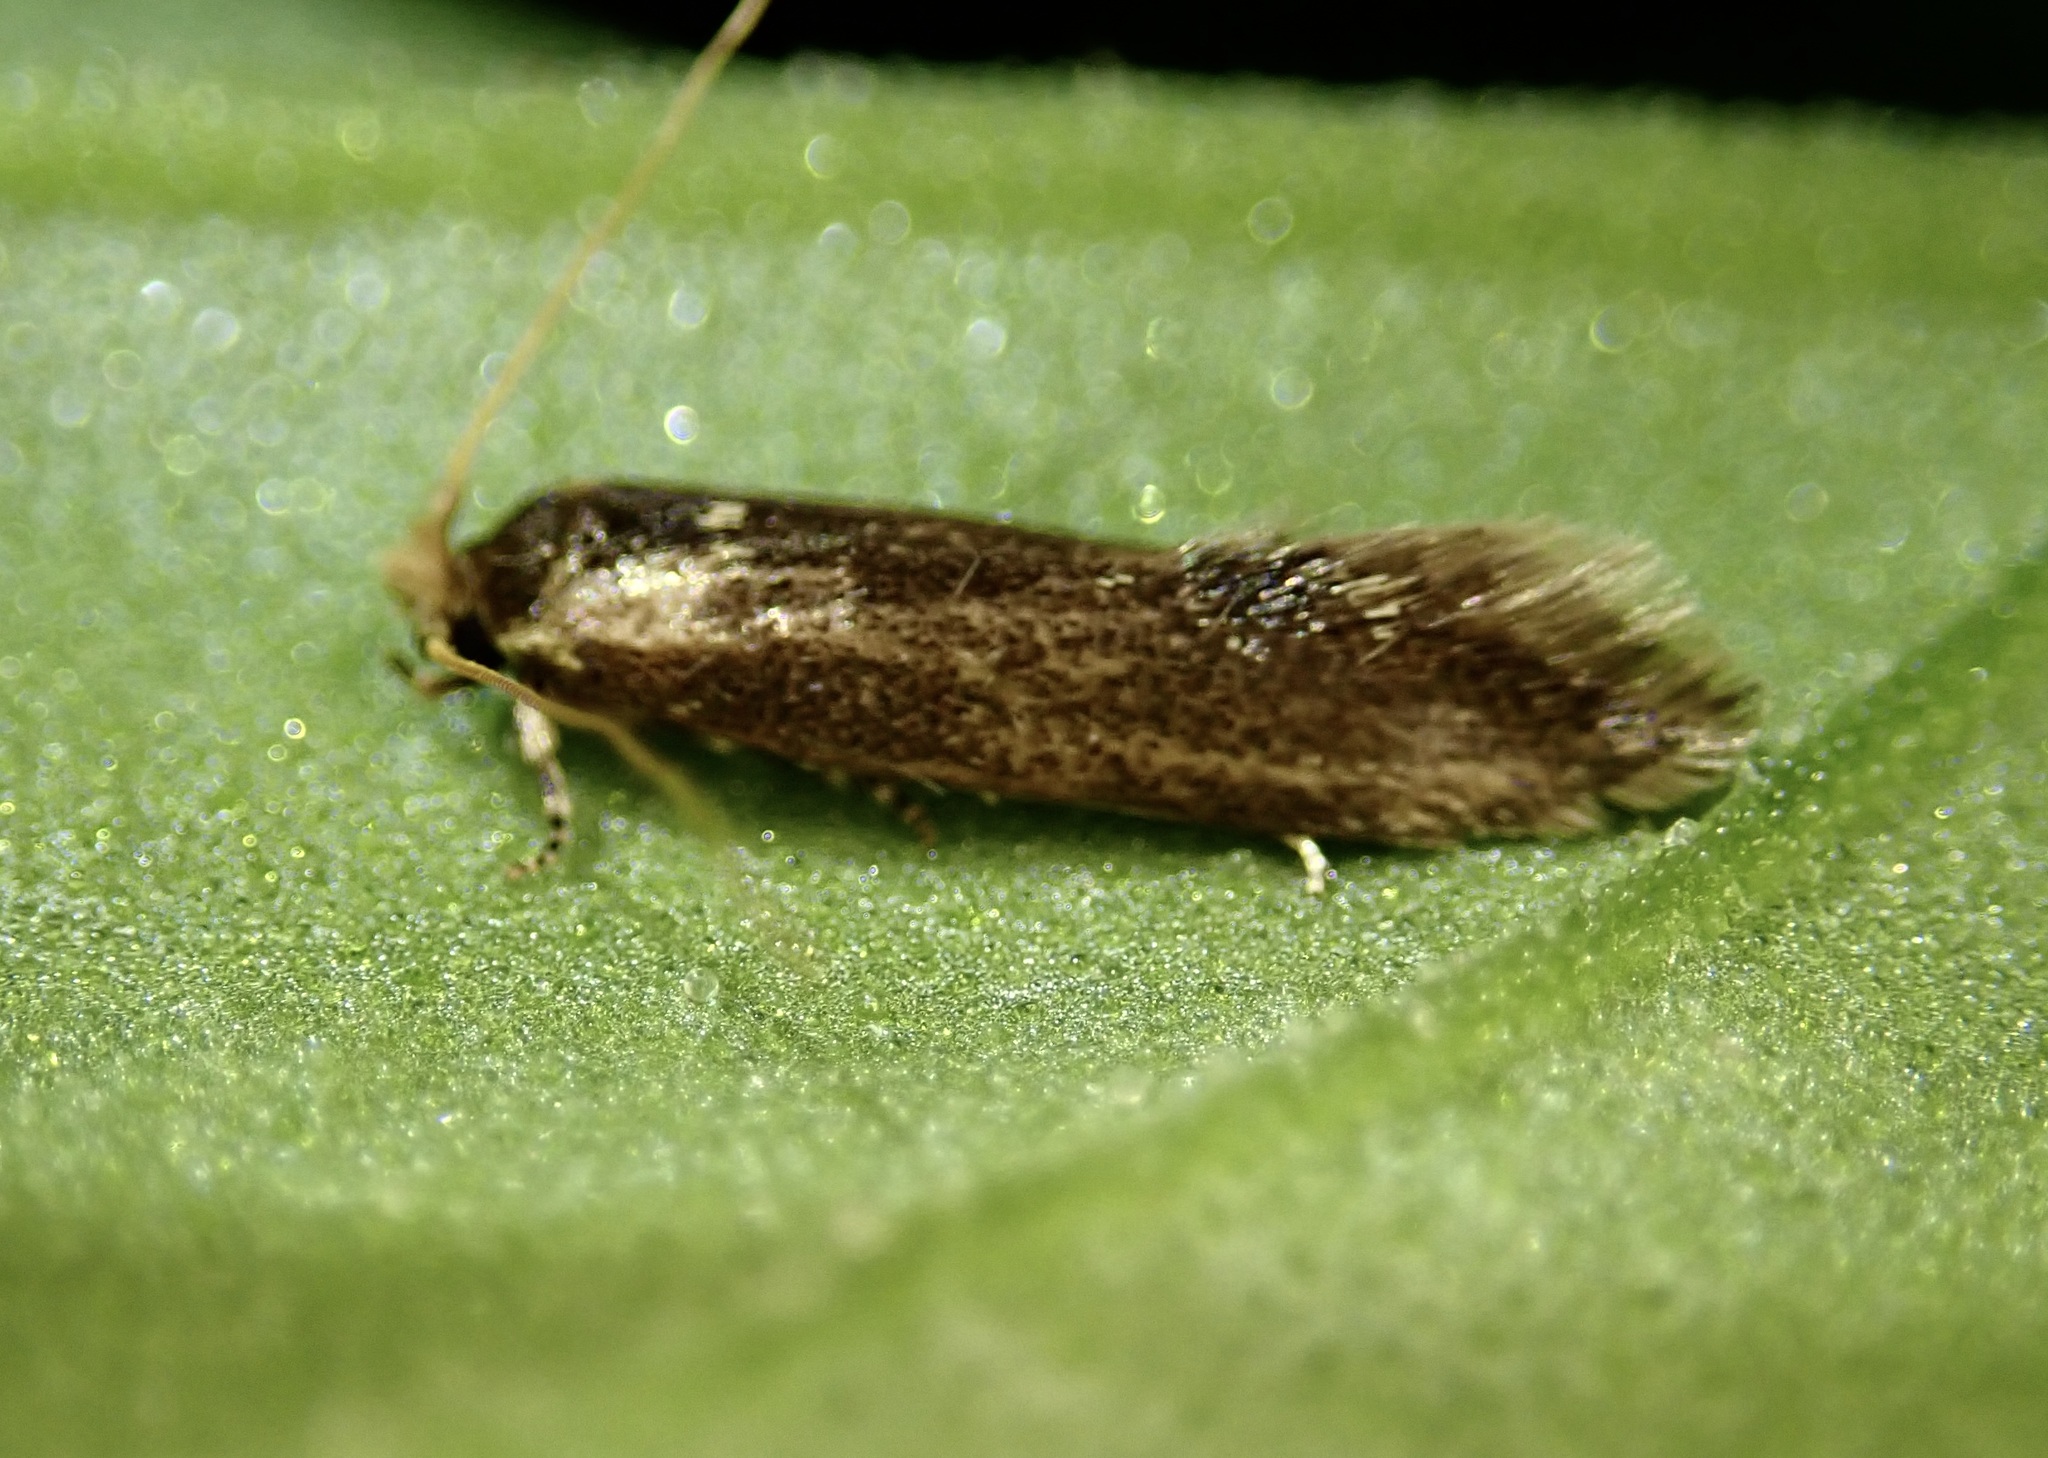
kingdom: Animalia
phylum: Arthropoda
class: Insecta
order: Lepidoptera
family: Tineidae
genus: Opogona
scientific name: Opogona omoscopa
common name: Moth
